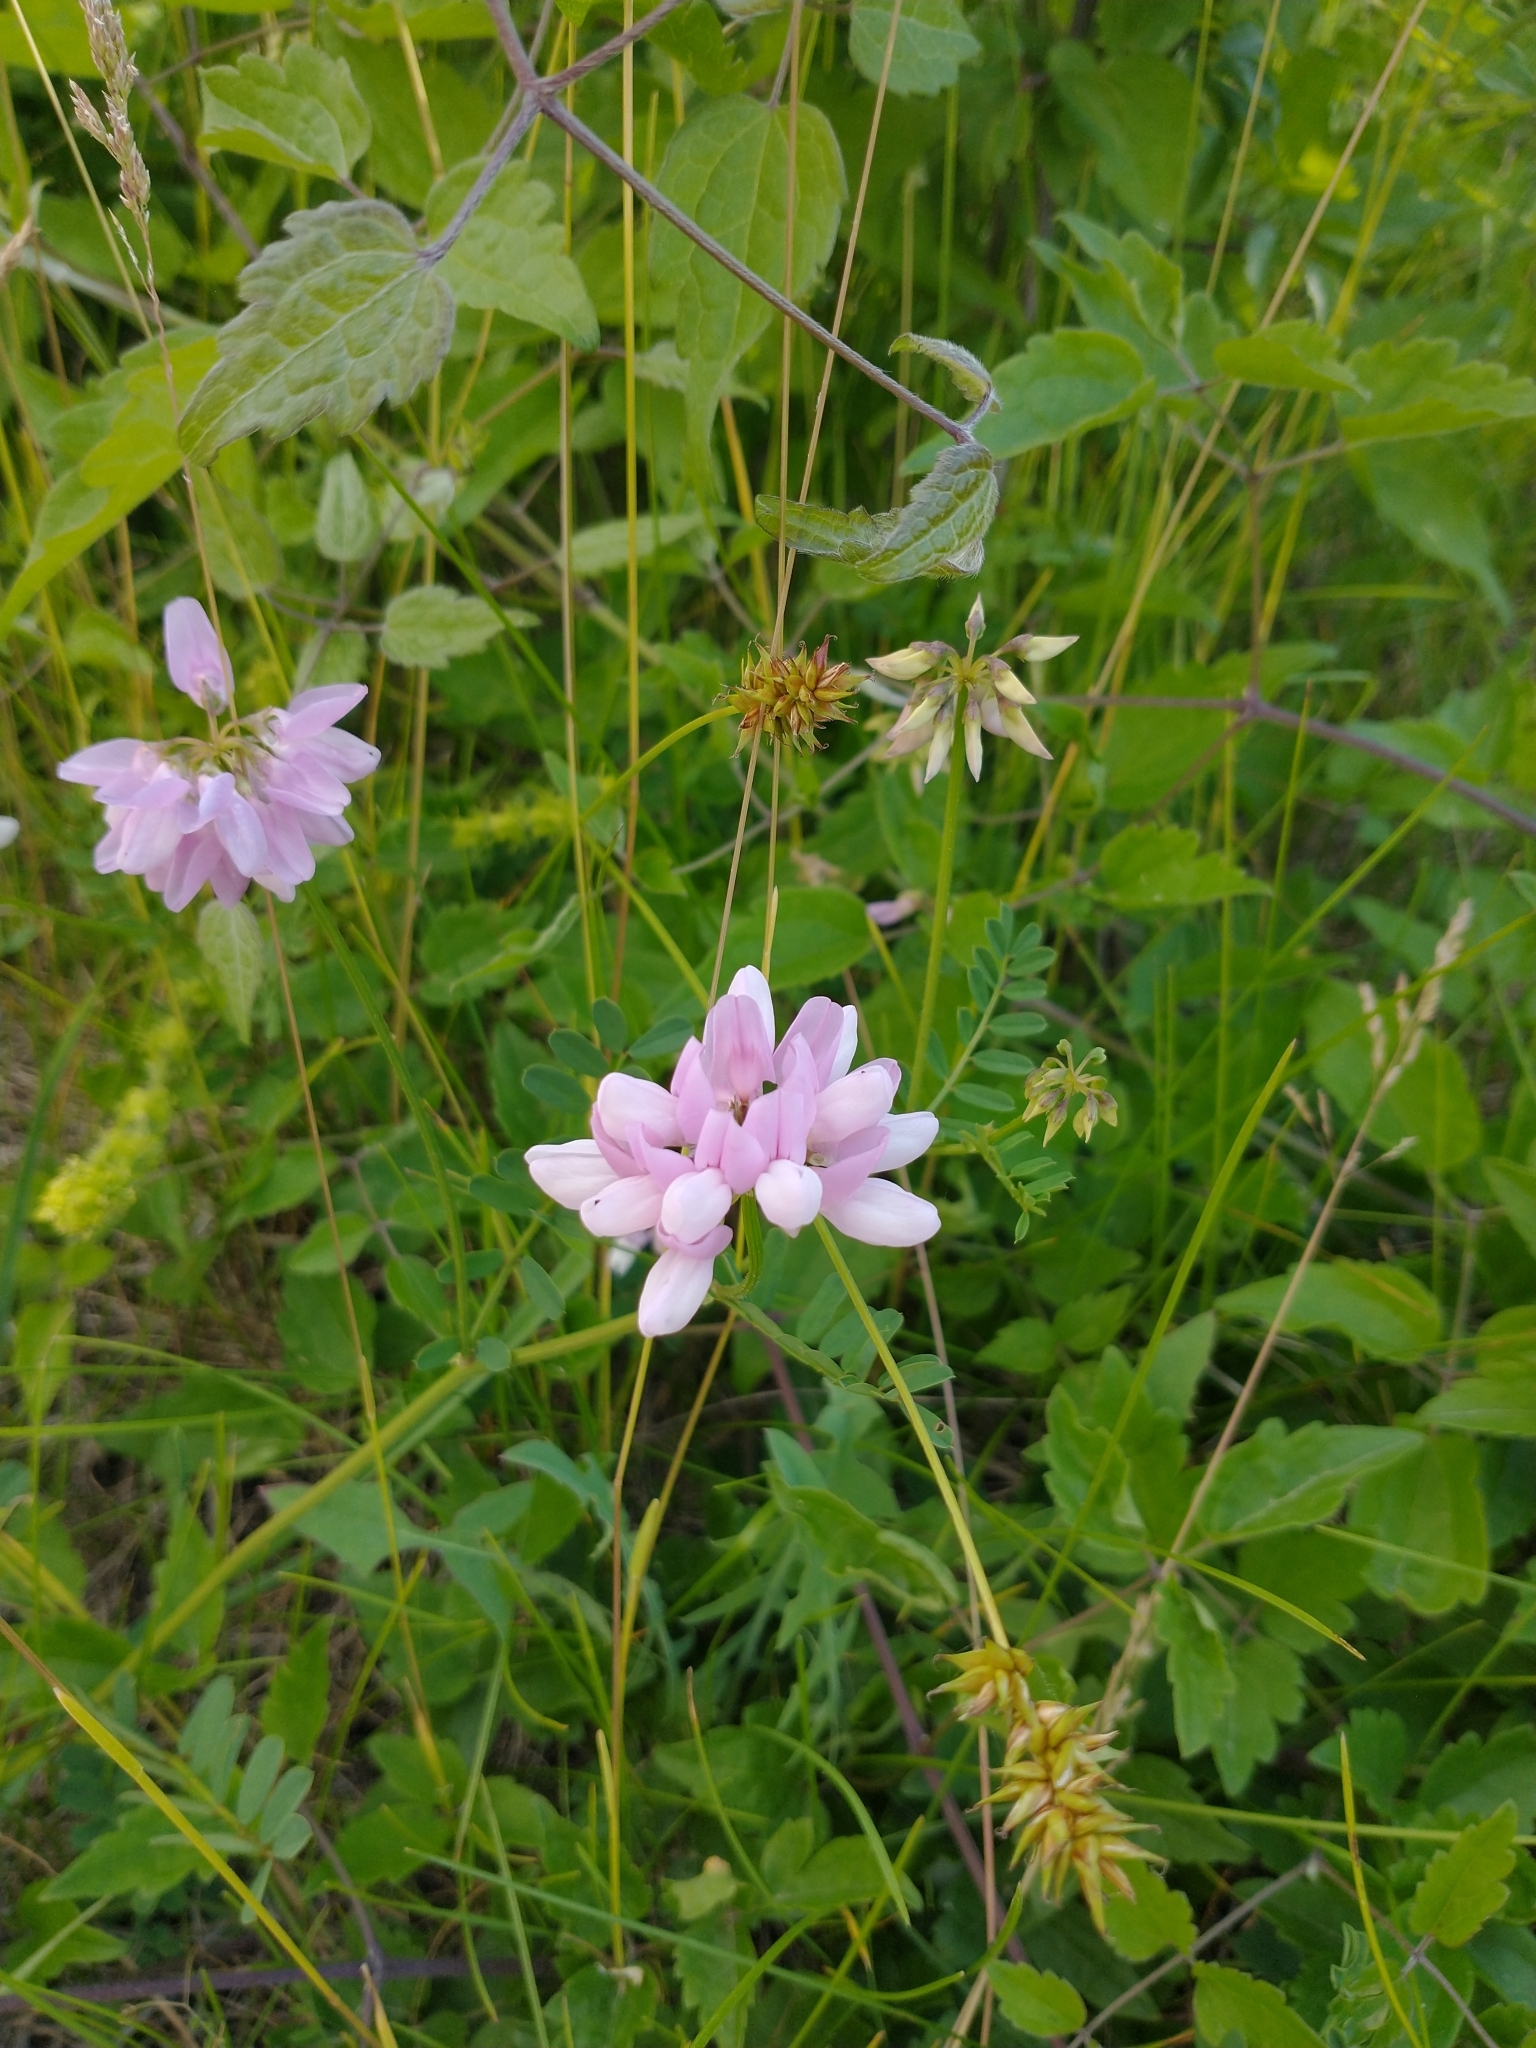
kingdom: Plantae
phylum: Tracheophyta
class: Magnoliopsida
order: Fabales
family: Fabaceae
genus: Coronilla
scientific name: Coronilla varia
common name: Crownvetch
